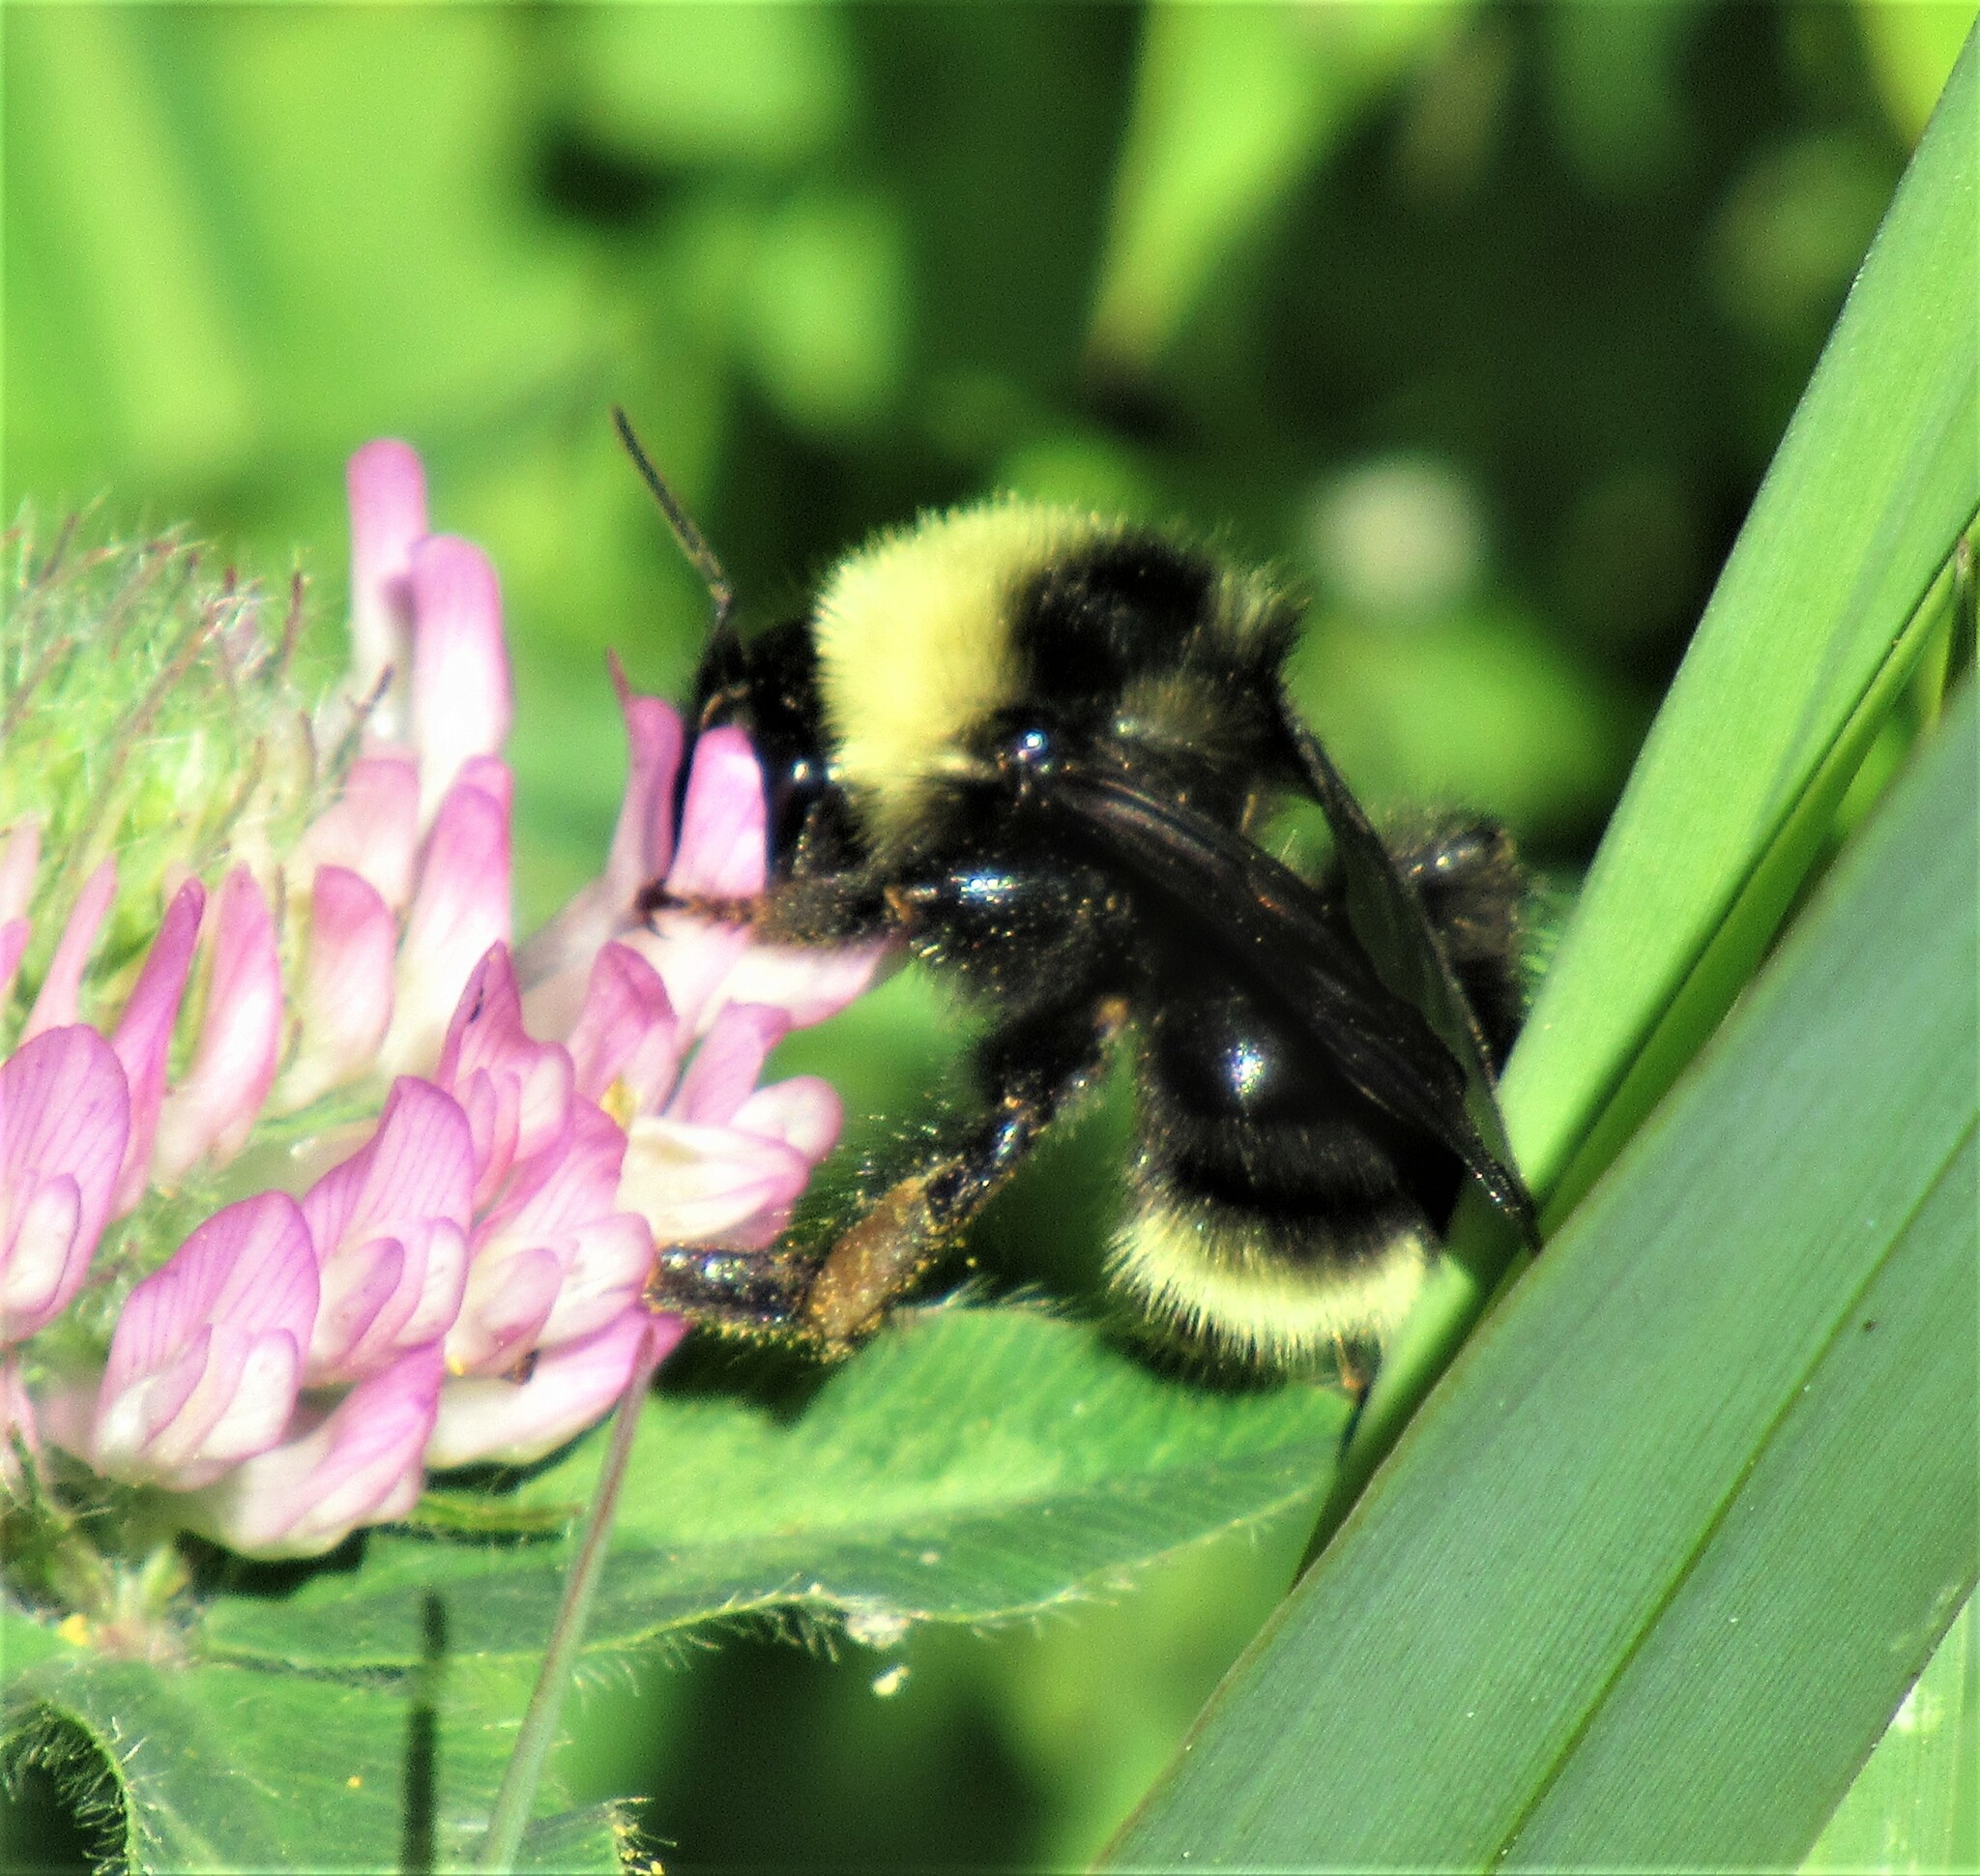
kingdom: Animalia
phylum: Arthropoda
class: Insecta
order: Hymenoptera
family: Apidae
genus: Bombus
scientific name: Bombus californicus
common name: California bumble bee
